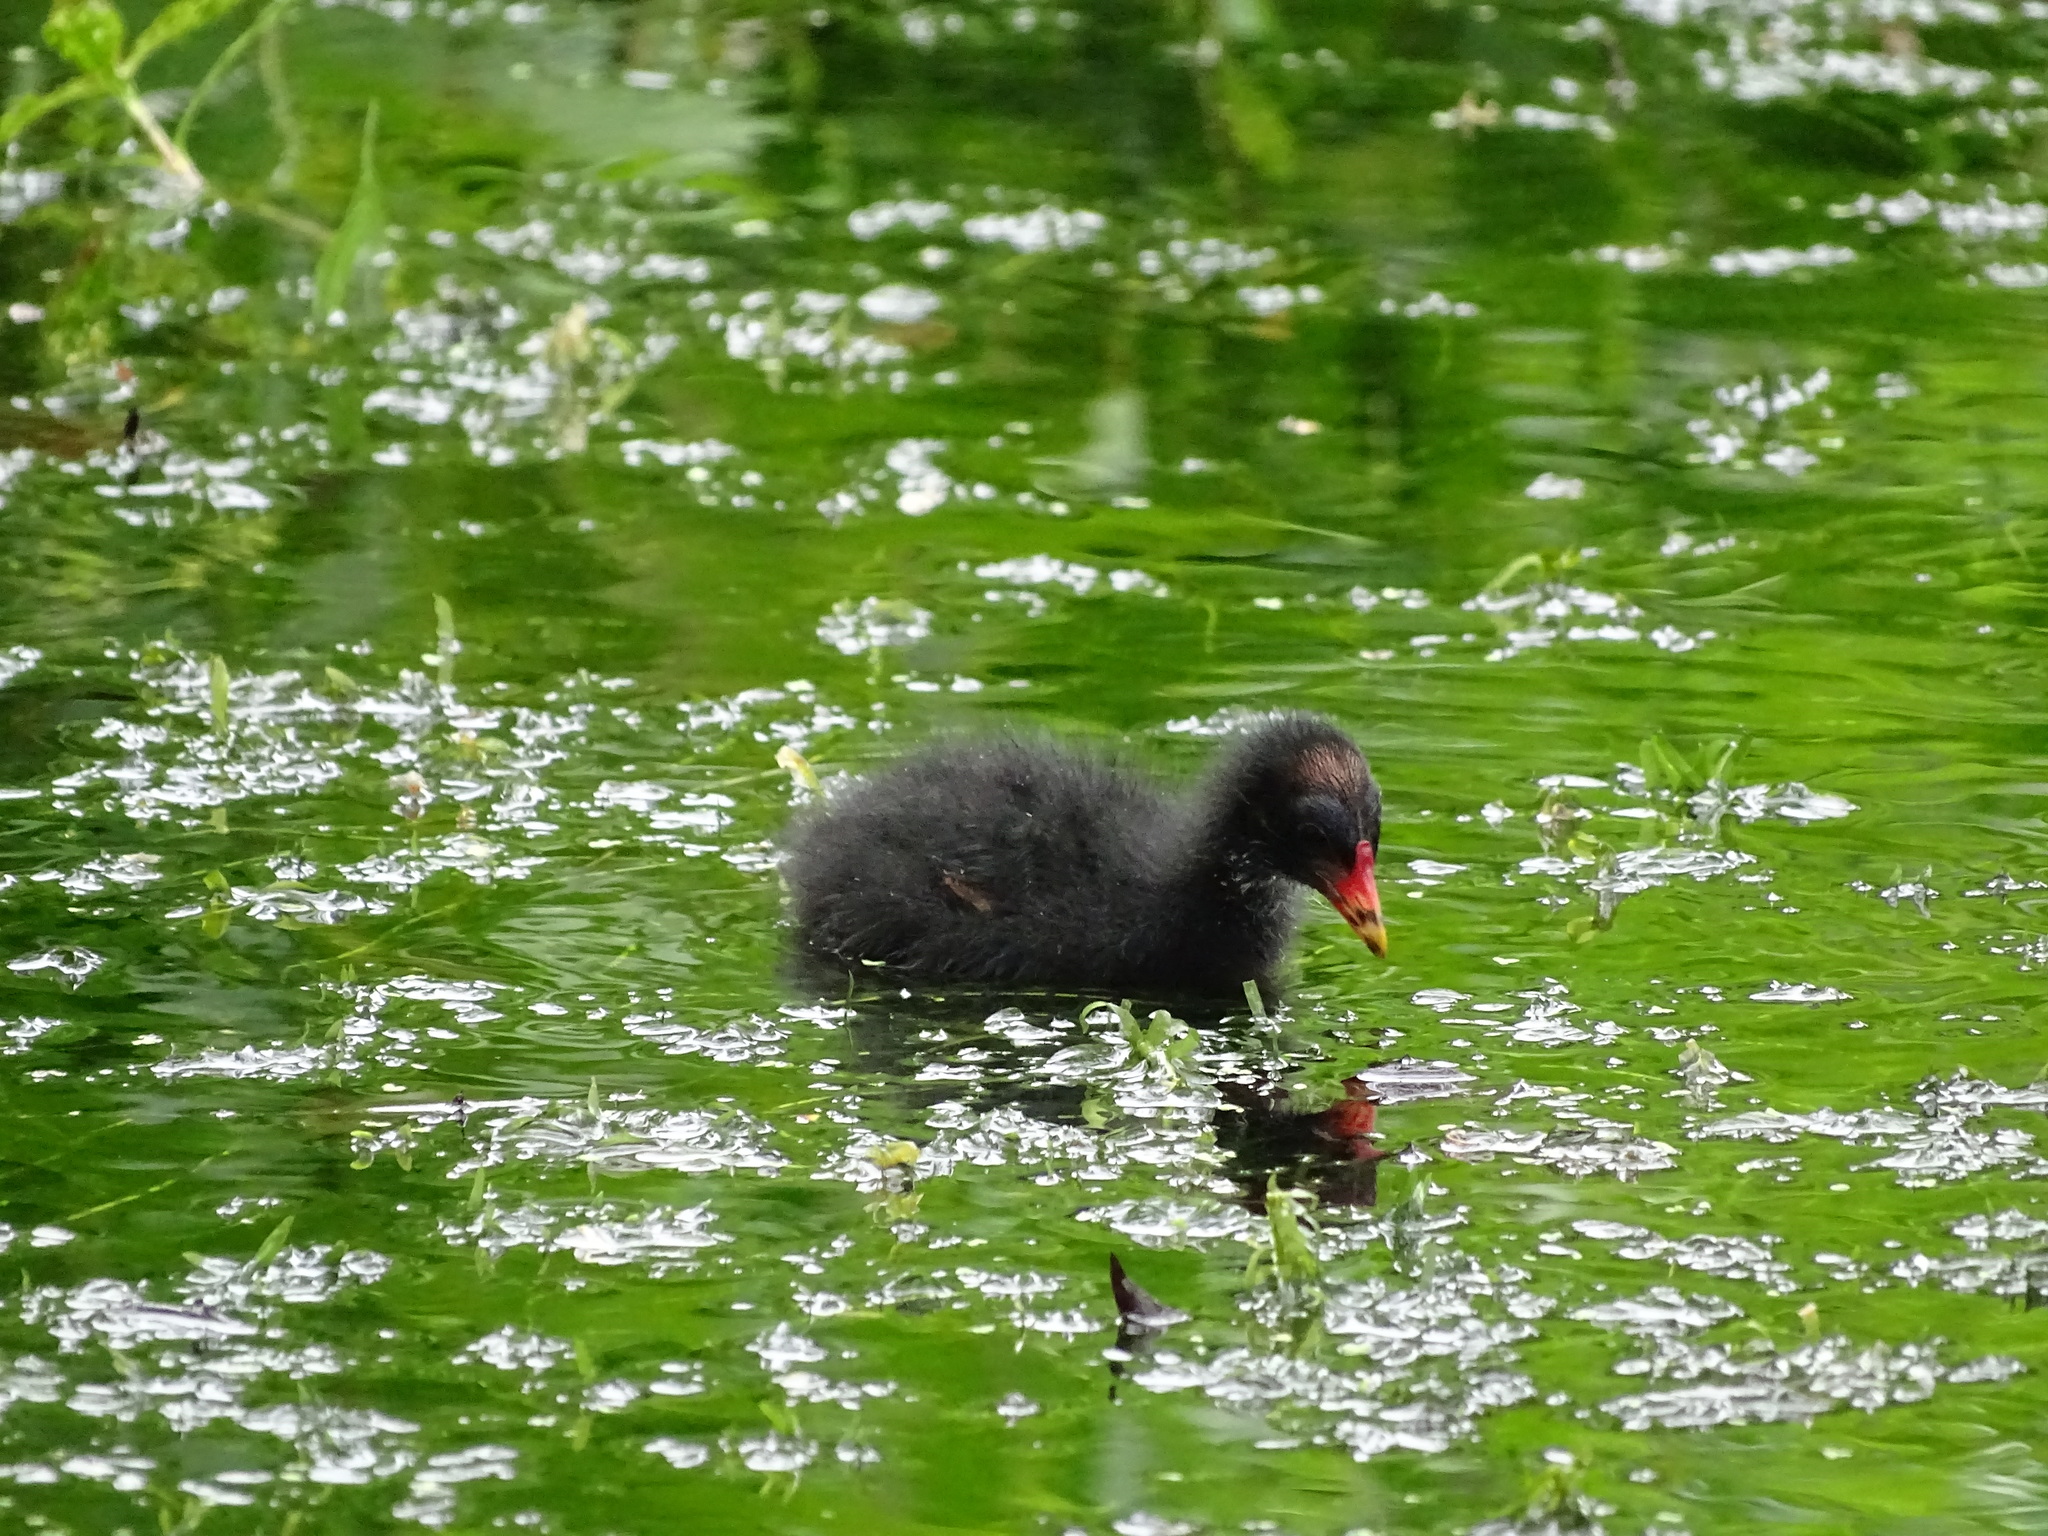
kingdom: Animalia
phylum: Chordata
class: Aves
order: Gruiformes
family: Rallidae
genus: Gallinula
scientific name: Gallinula chloropus
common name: Common moorhen
